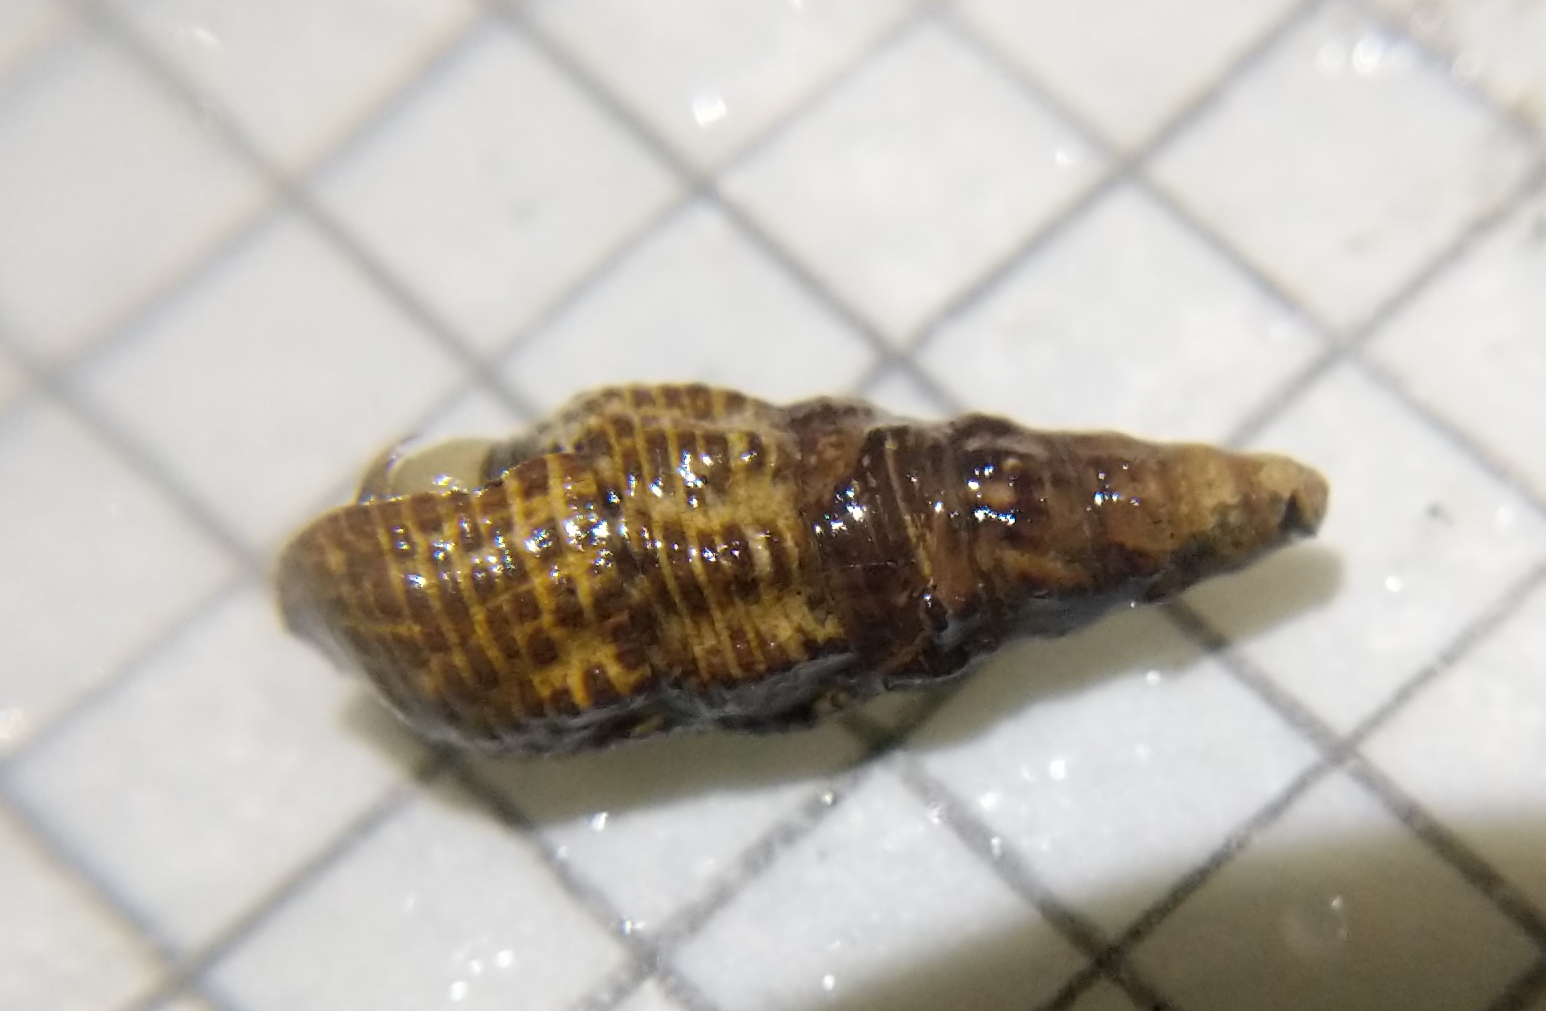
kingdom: Animalia
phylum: Mollusca
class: Gastropoda
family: Batillariidae
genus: Batillaria
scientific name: Batillaria attramentaria
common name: Japanese false cerith
